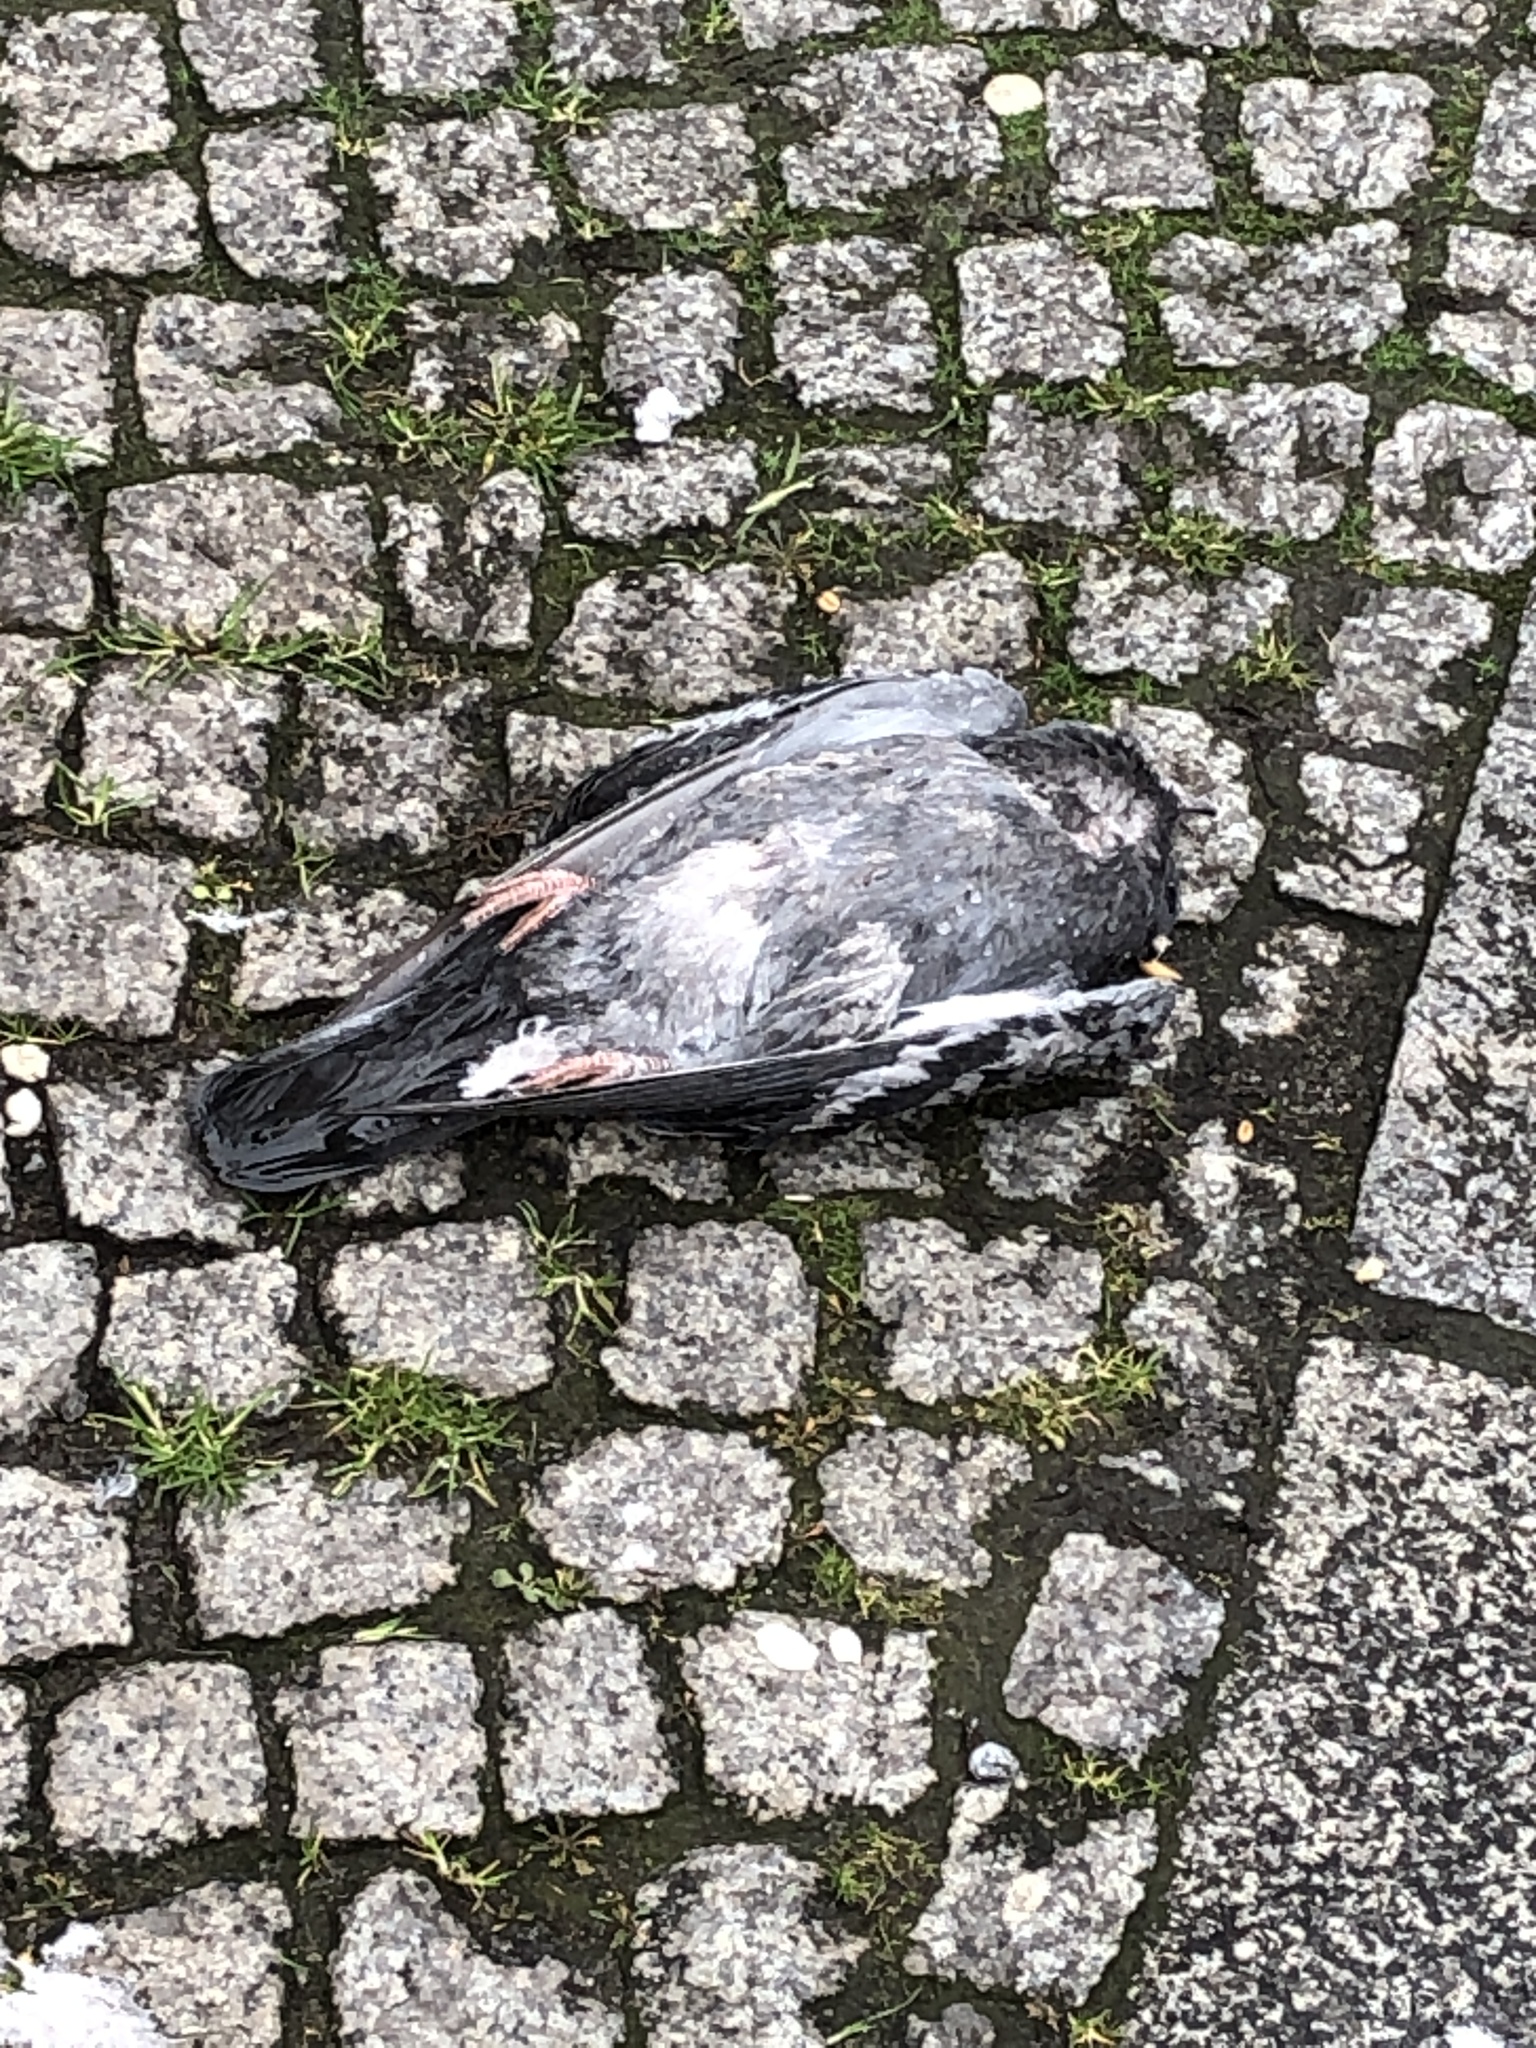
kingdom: Animalia
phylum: Chordata
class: Aves
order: Columbiformes
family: Columbidae
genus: Columba
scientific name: Columba livia
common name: Rock pigeon
